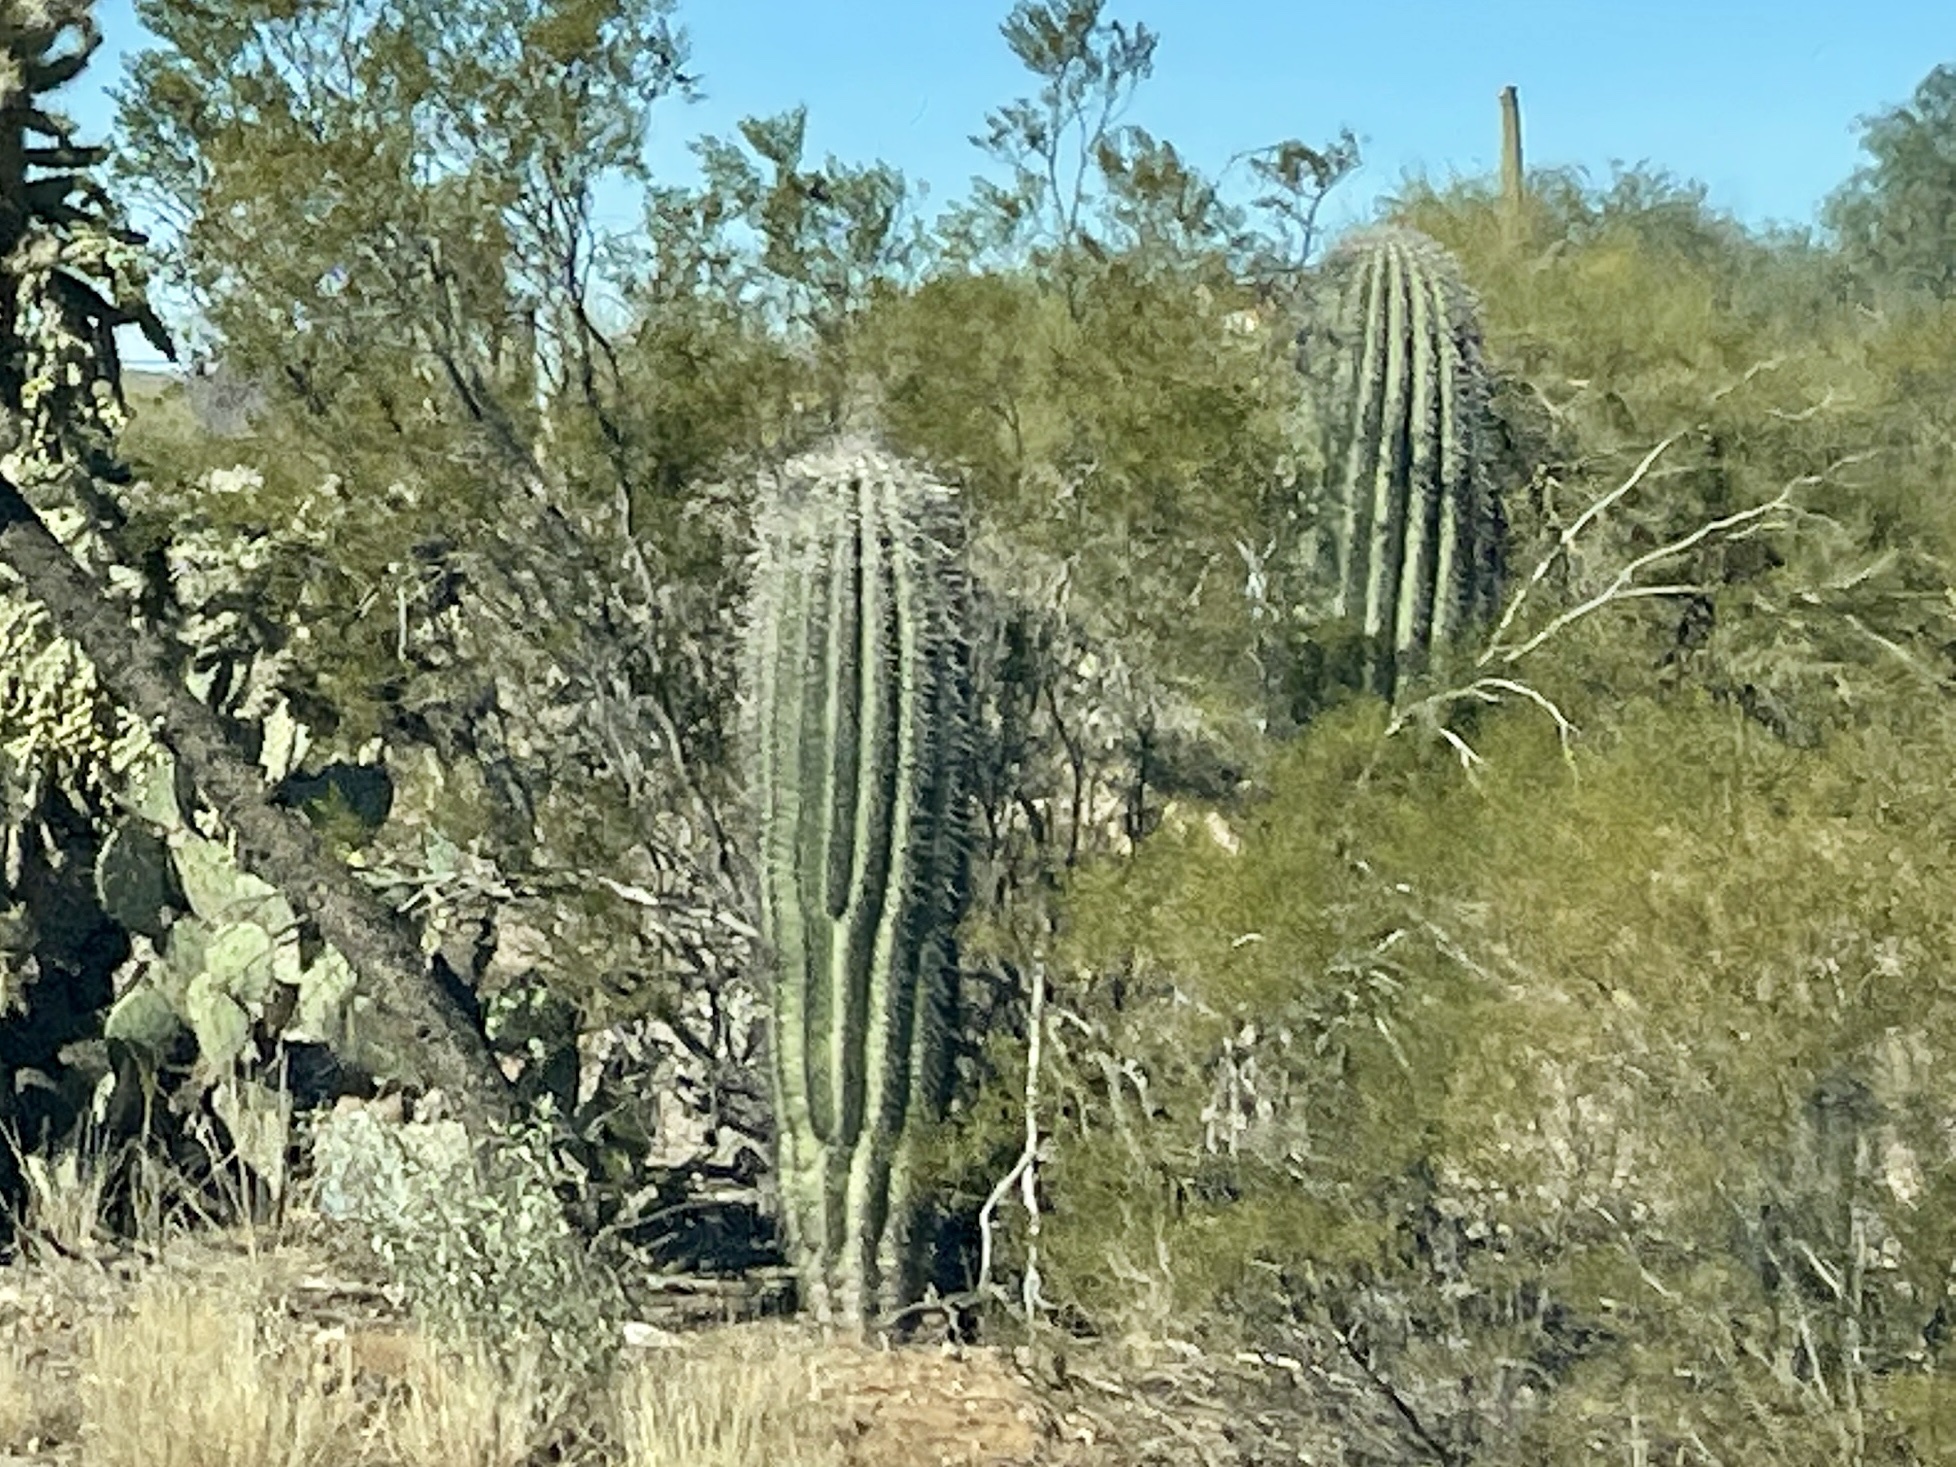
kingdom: Plantae
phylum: Tracheophyta
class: Magnoliopsida
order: Caryophyllales
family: Cactaceae
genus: Carnegiea
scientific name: Carnegiea gigantea
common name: Saguaro
